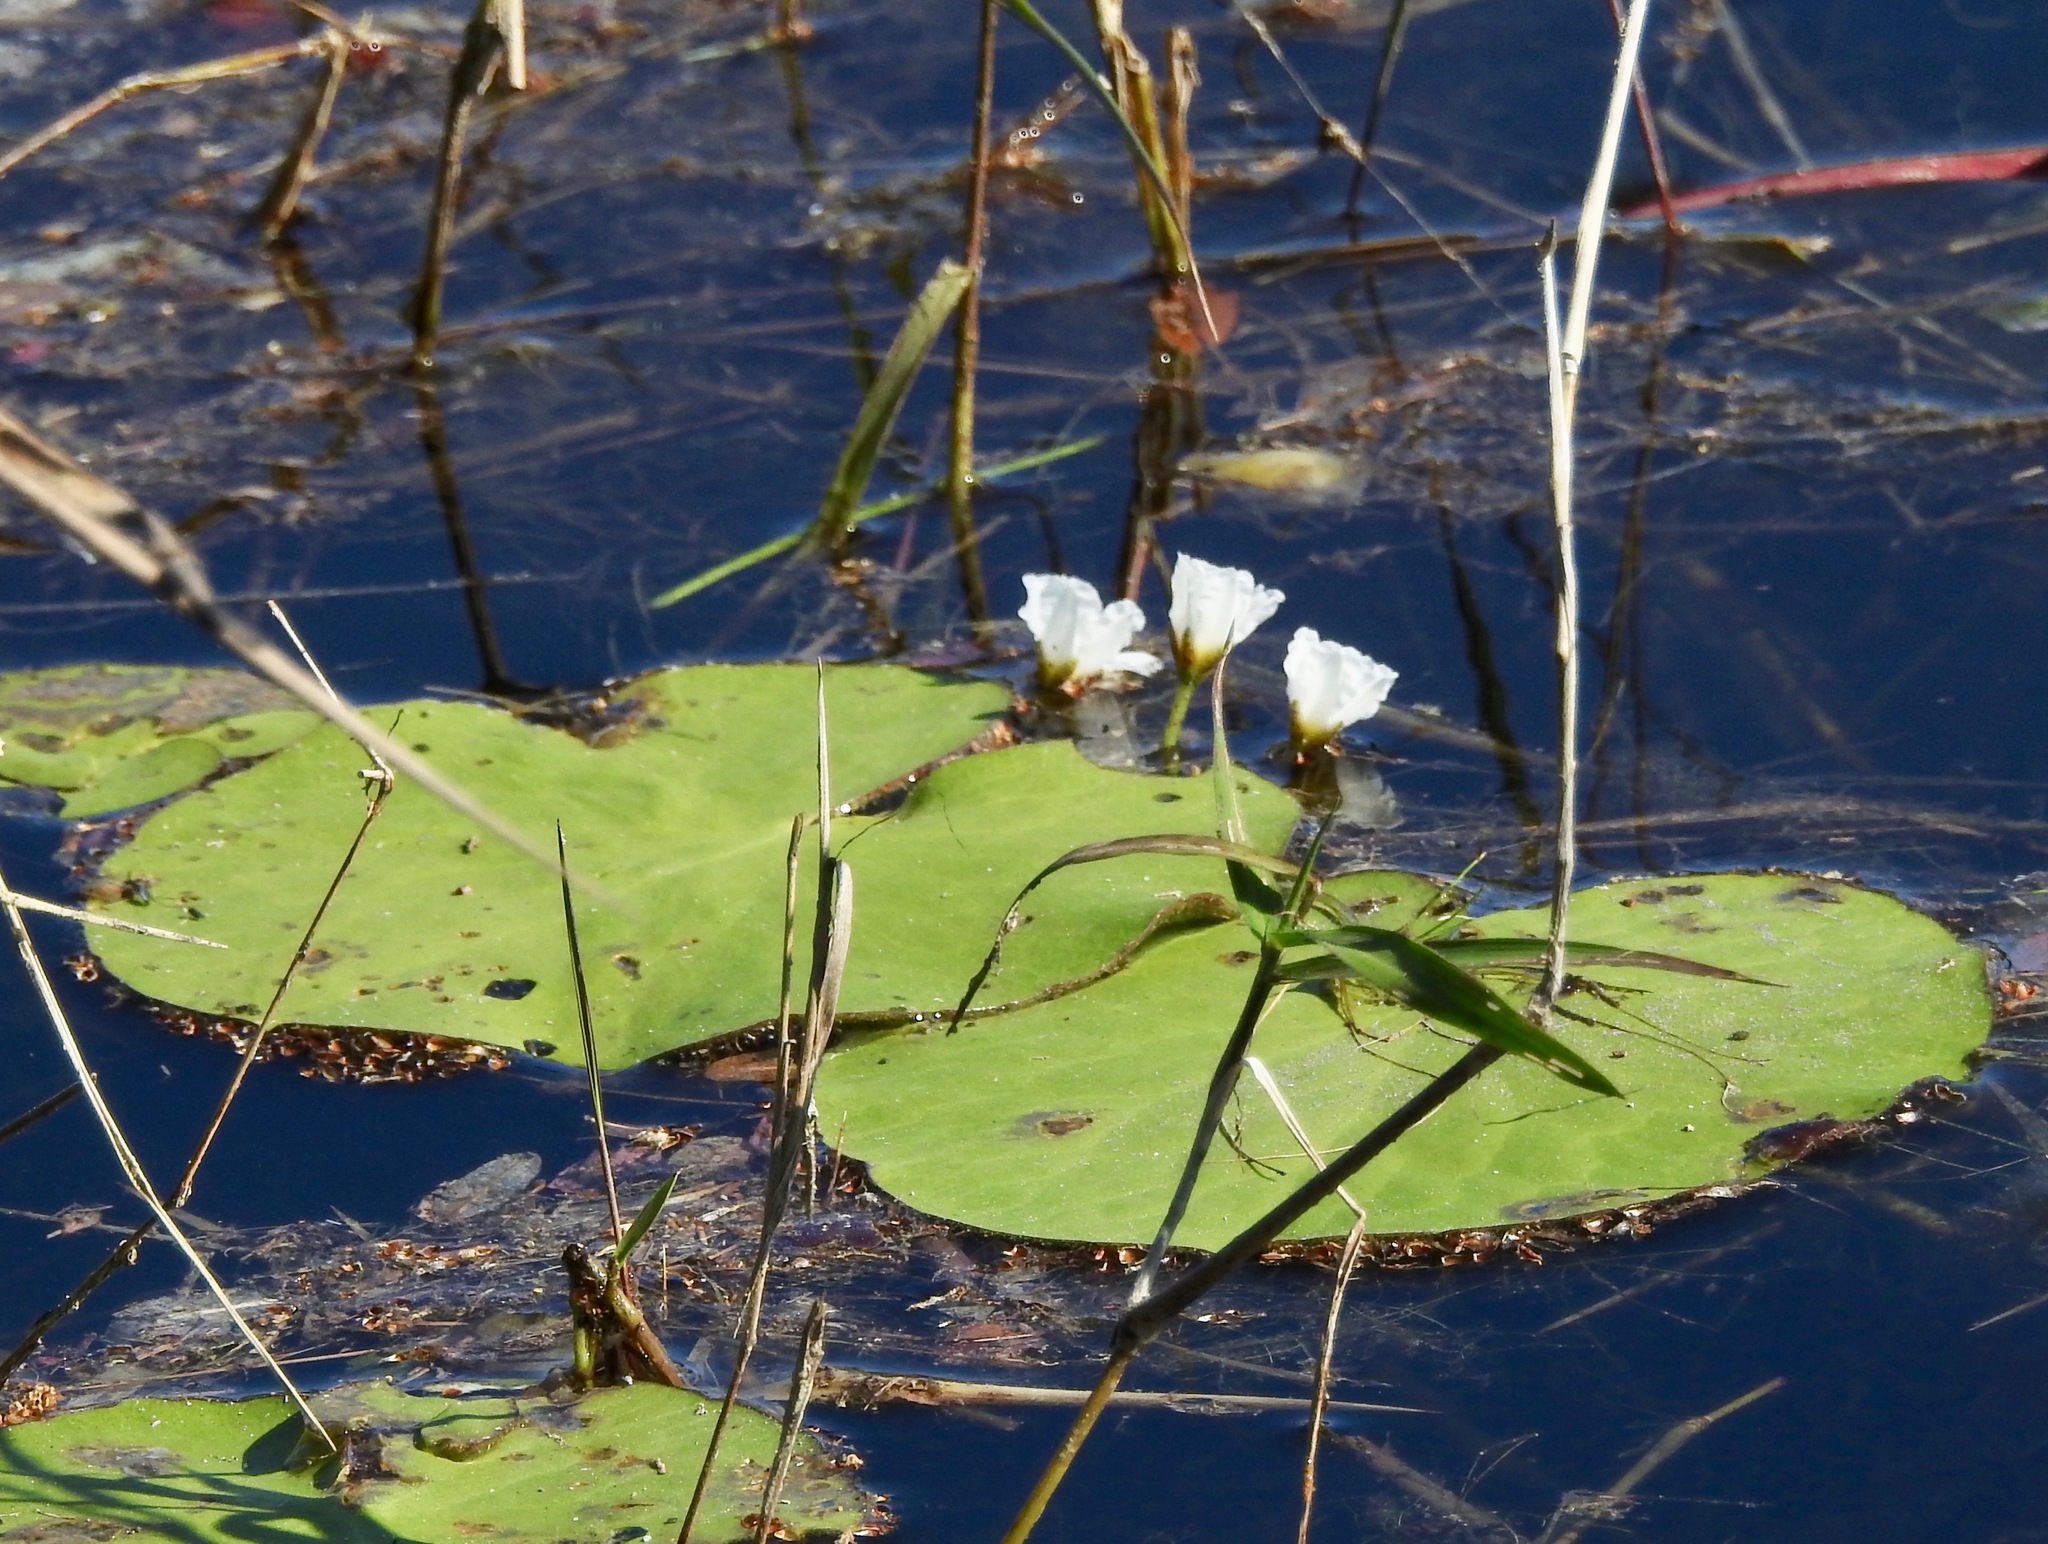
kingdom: Plantae
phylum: Tracheophyta
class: Magnoliopsida
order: Asterales
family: Menyanthaceae
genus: Nymphoides
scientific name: Nymphoides aquatica
